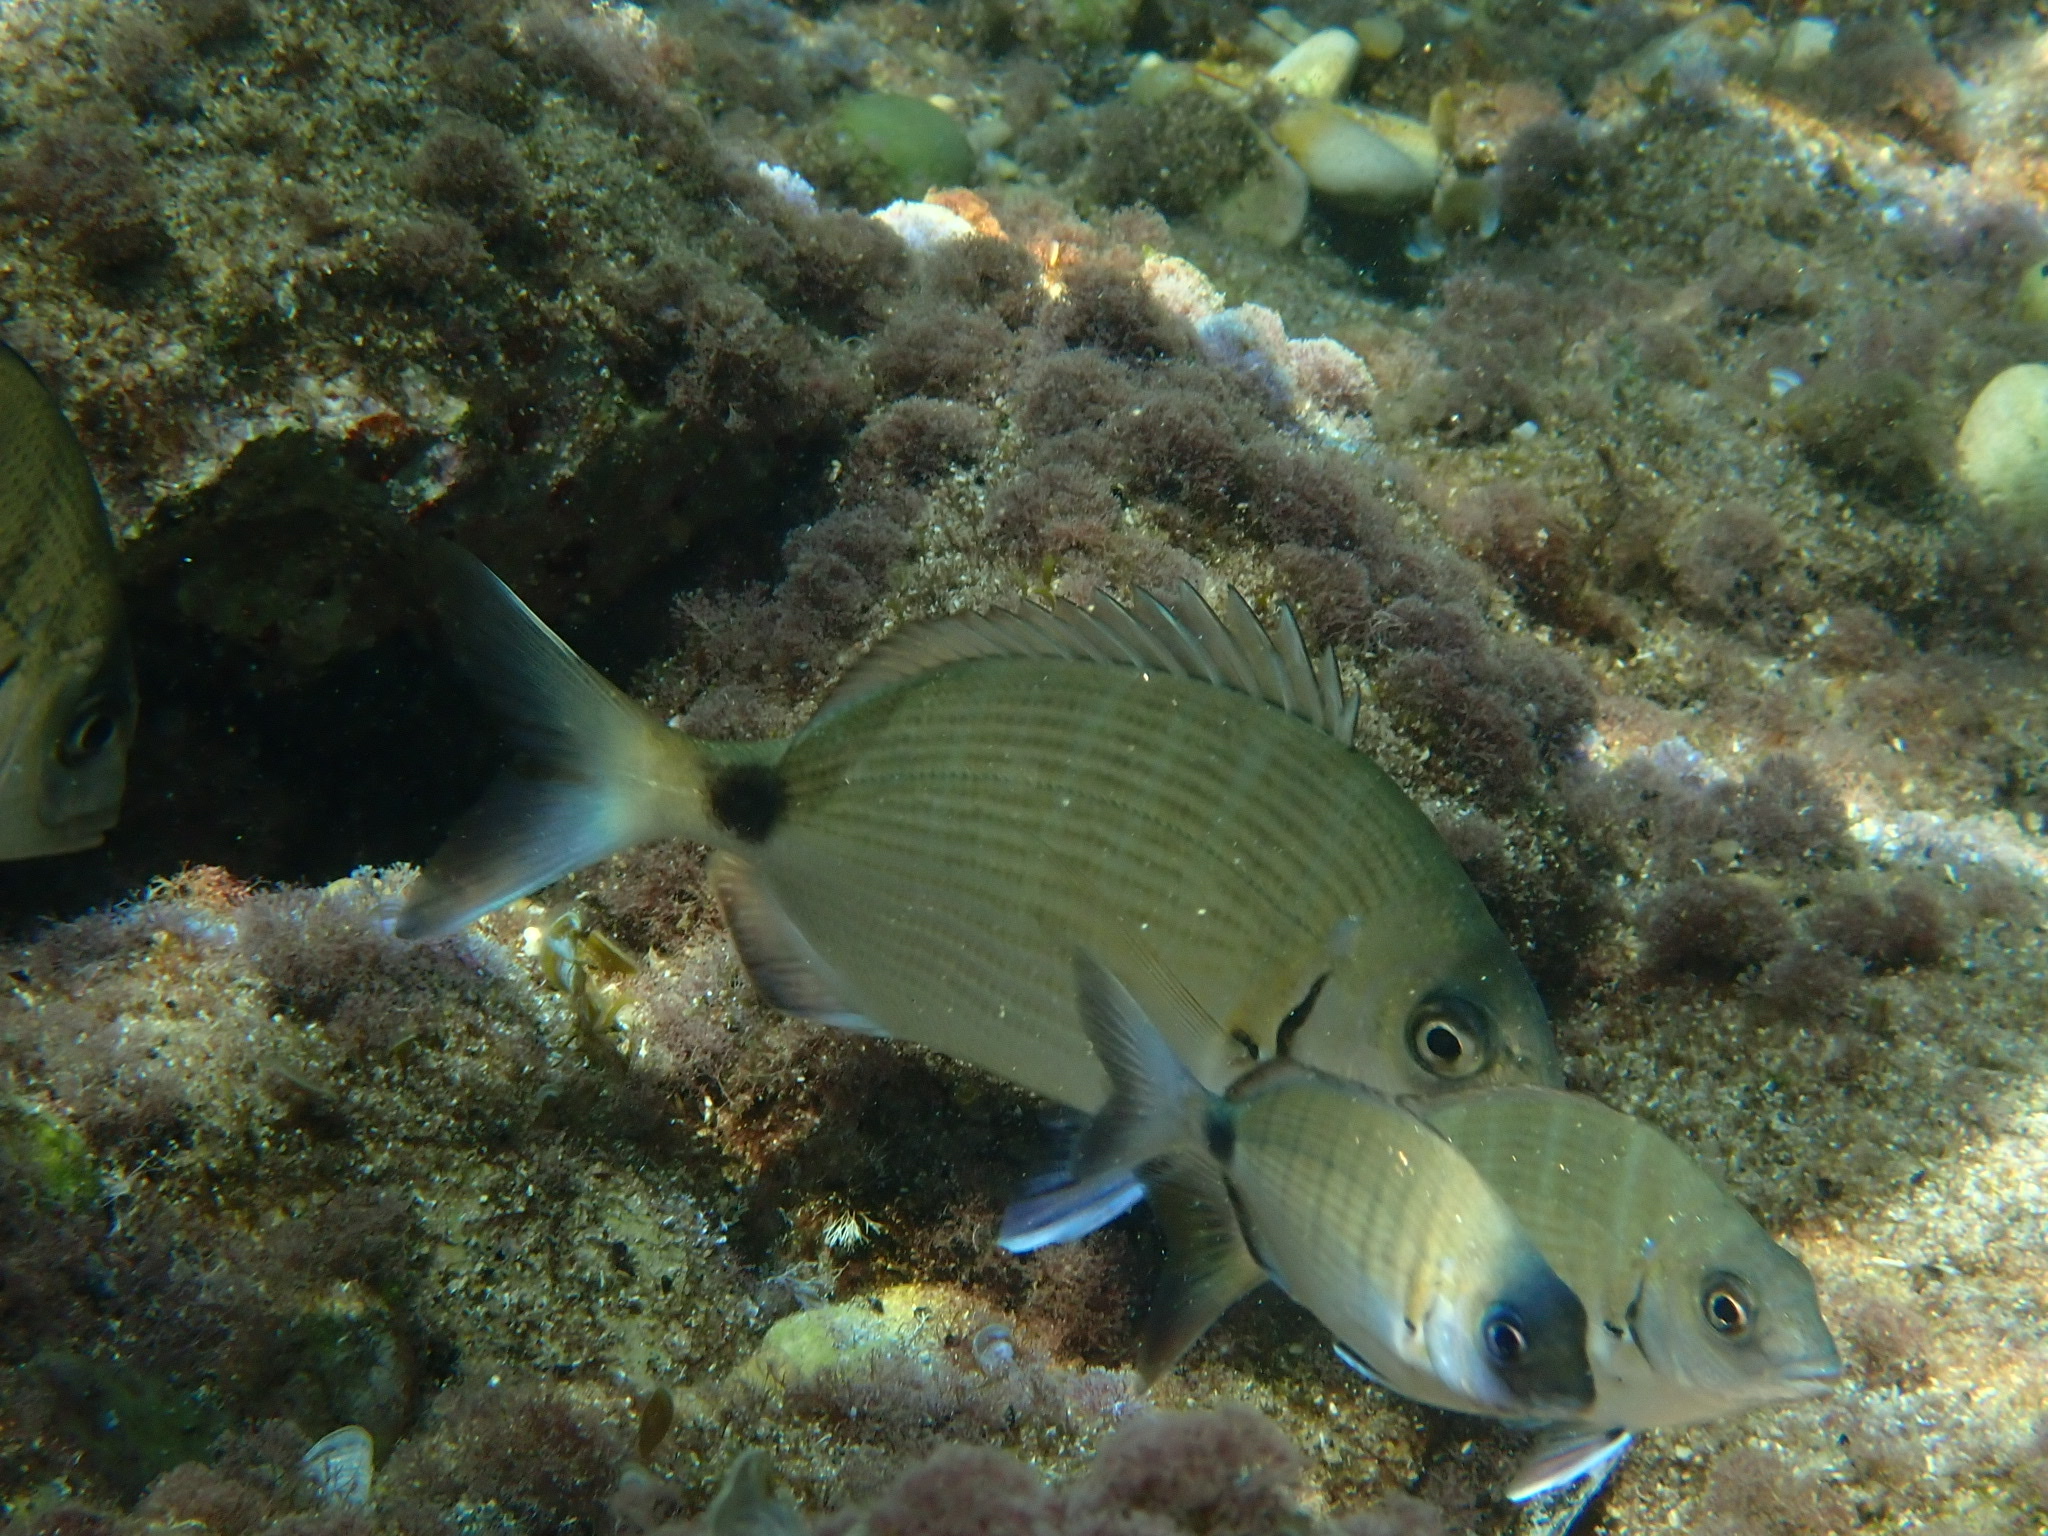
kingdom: Animalia
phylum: Chordata
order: Perciformes
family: Sparidae
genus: Diplodus
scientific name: Diplodus sargus
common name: White seabream
